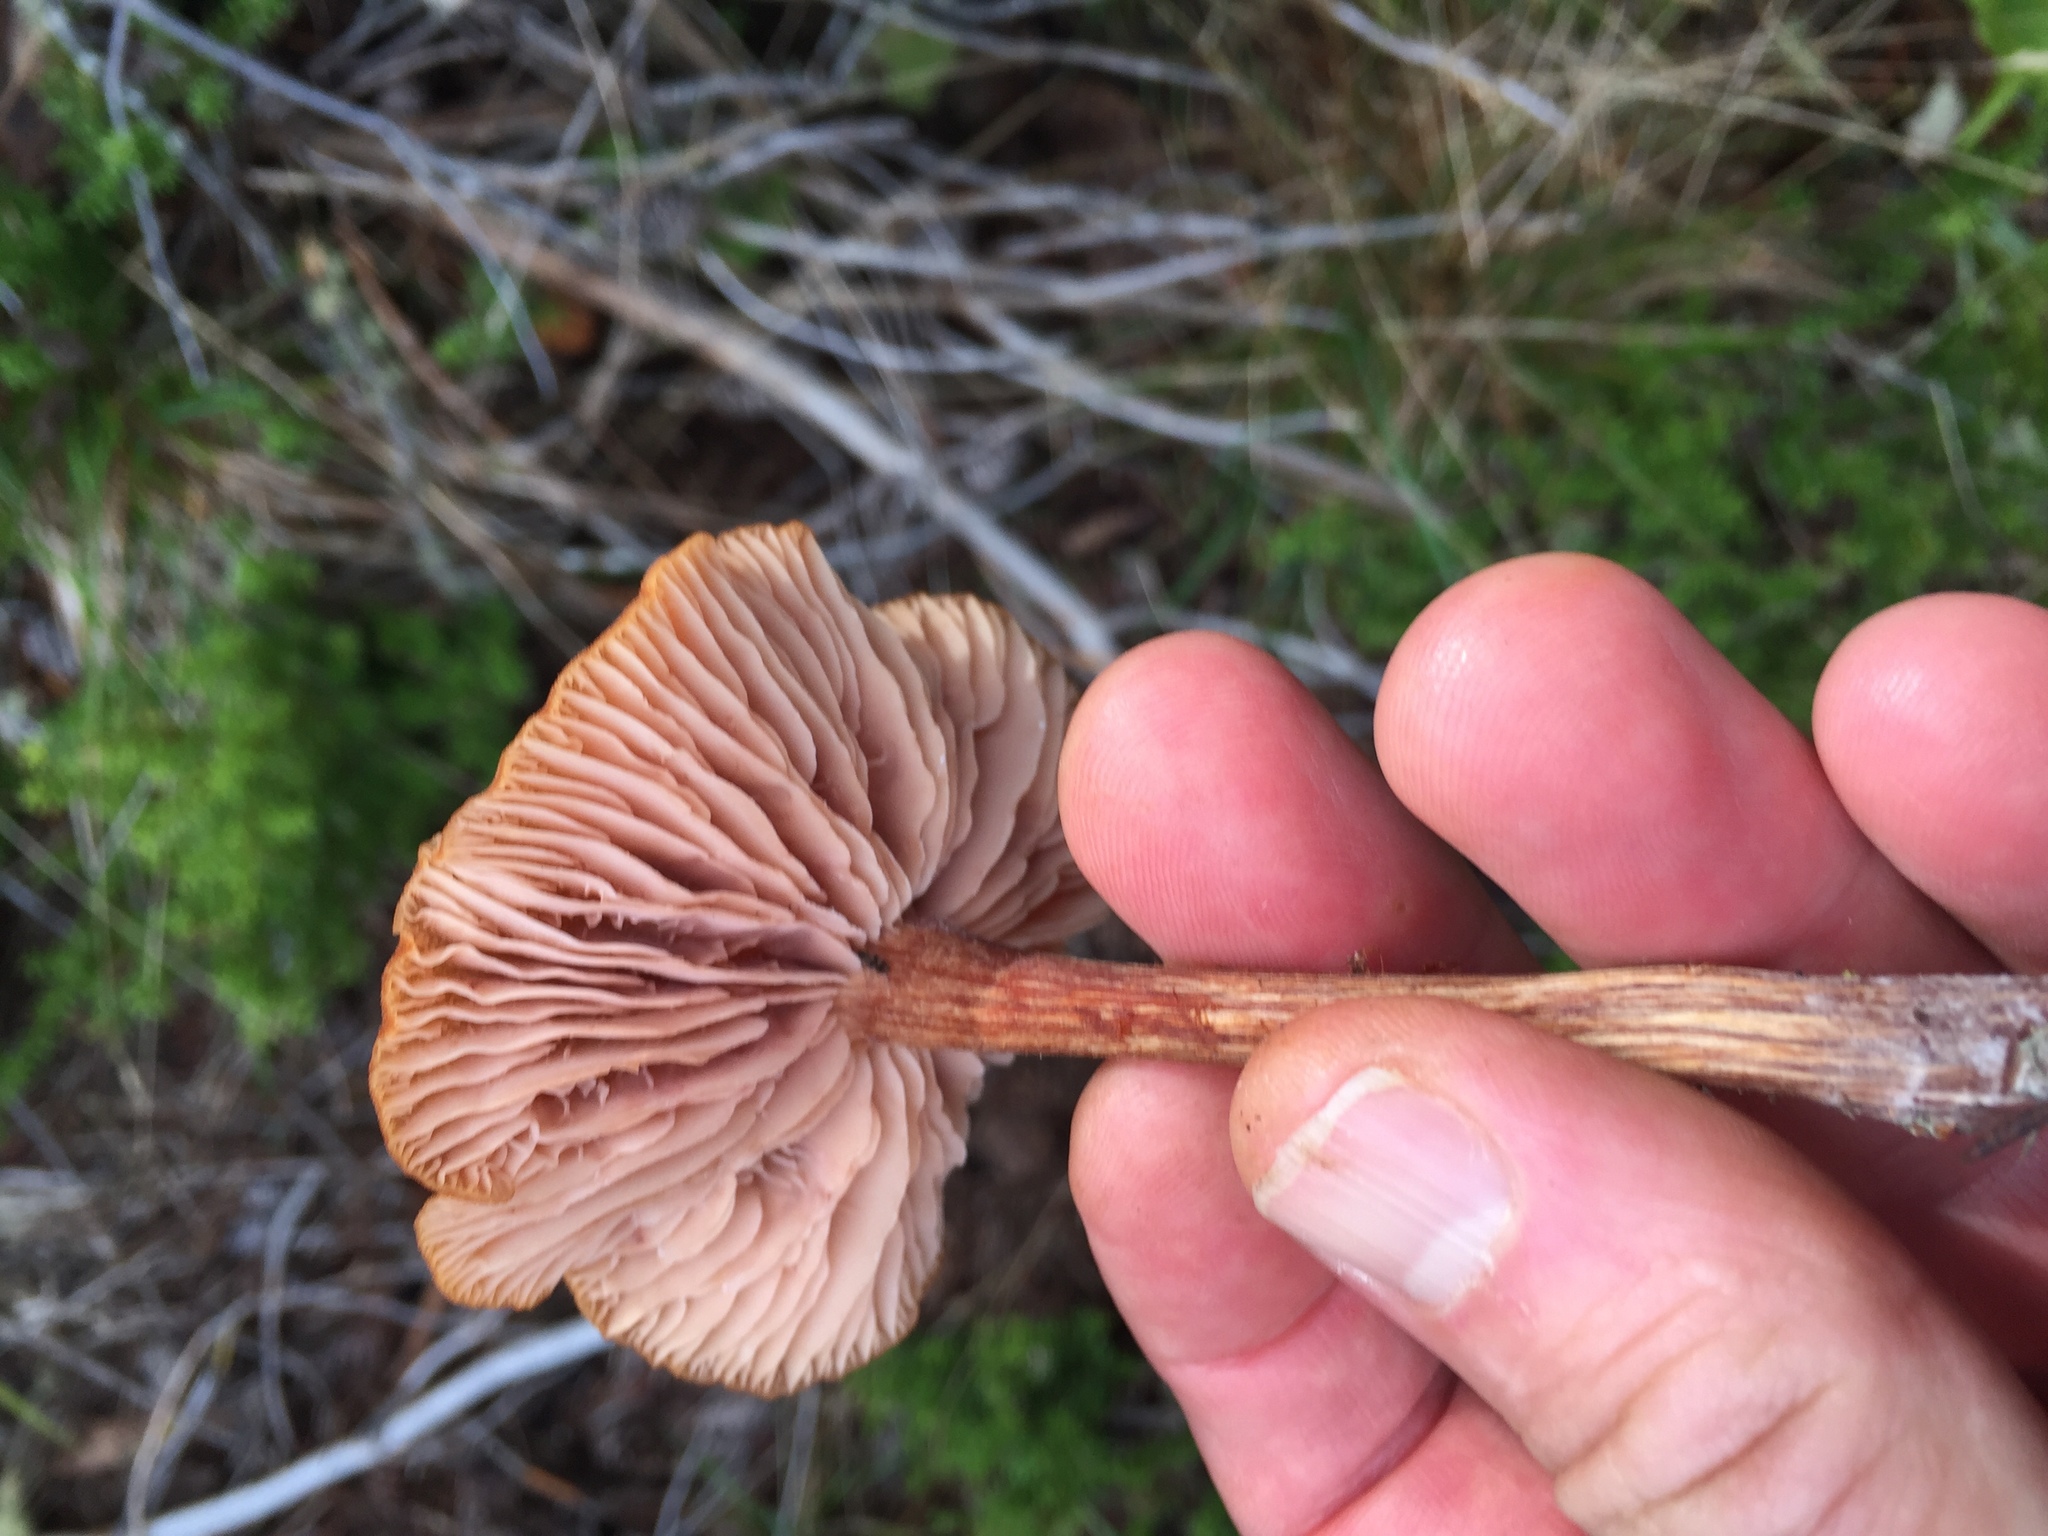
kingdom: Fungi
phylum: Basidiomycota
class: Agaricomycetes
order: Agaricales
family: Hydnangiaceae
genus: Laccaria
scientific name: Laccaria proxima
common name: Scurfy deceiver
